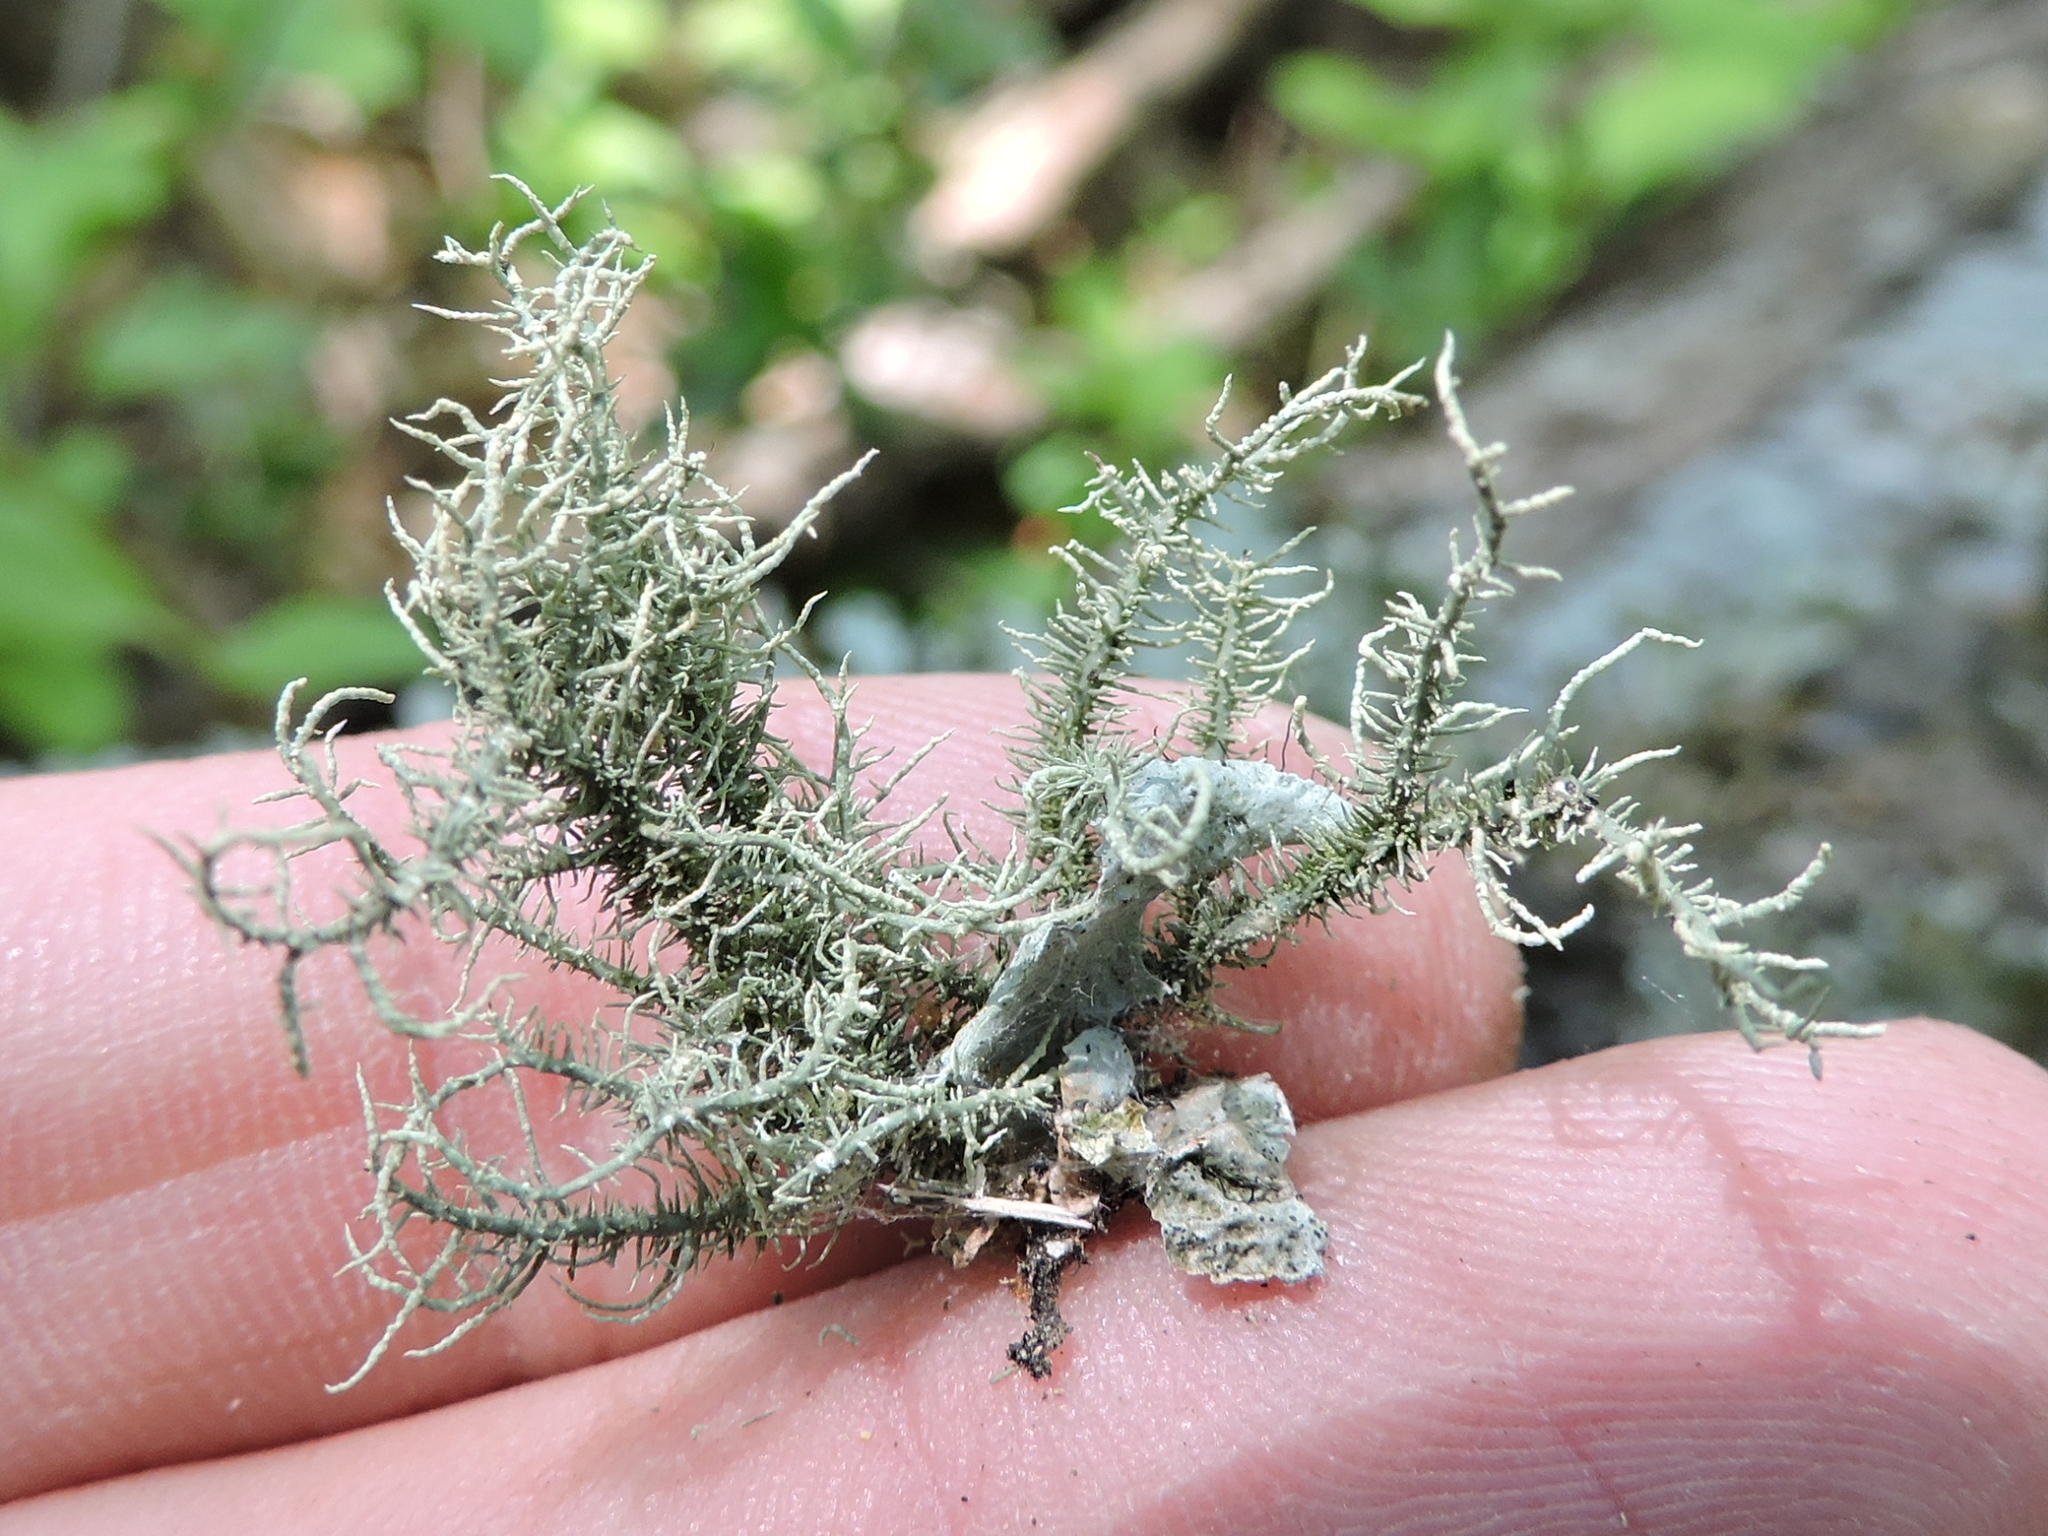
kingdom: Fungi
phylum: Ascomycota
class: Lecanoromycetes
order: Lecanorales
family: Parmeliaceae
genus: Usnea
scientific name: Usnea strigosa
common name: Bushy beard lichen
